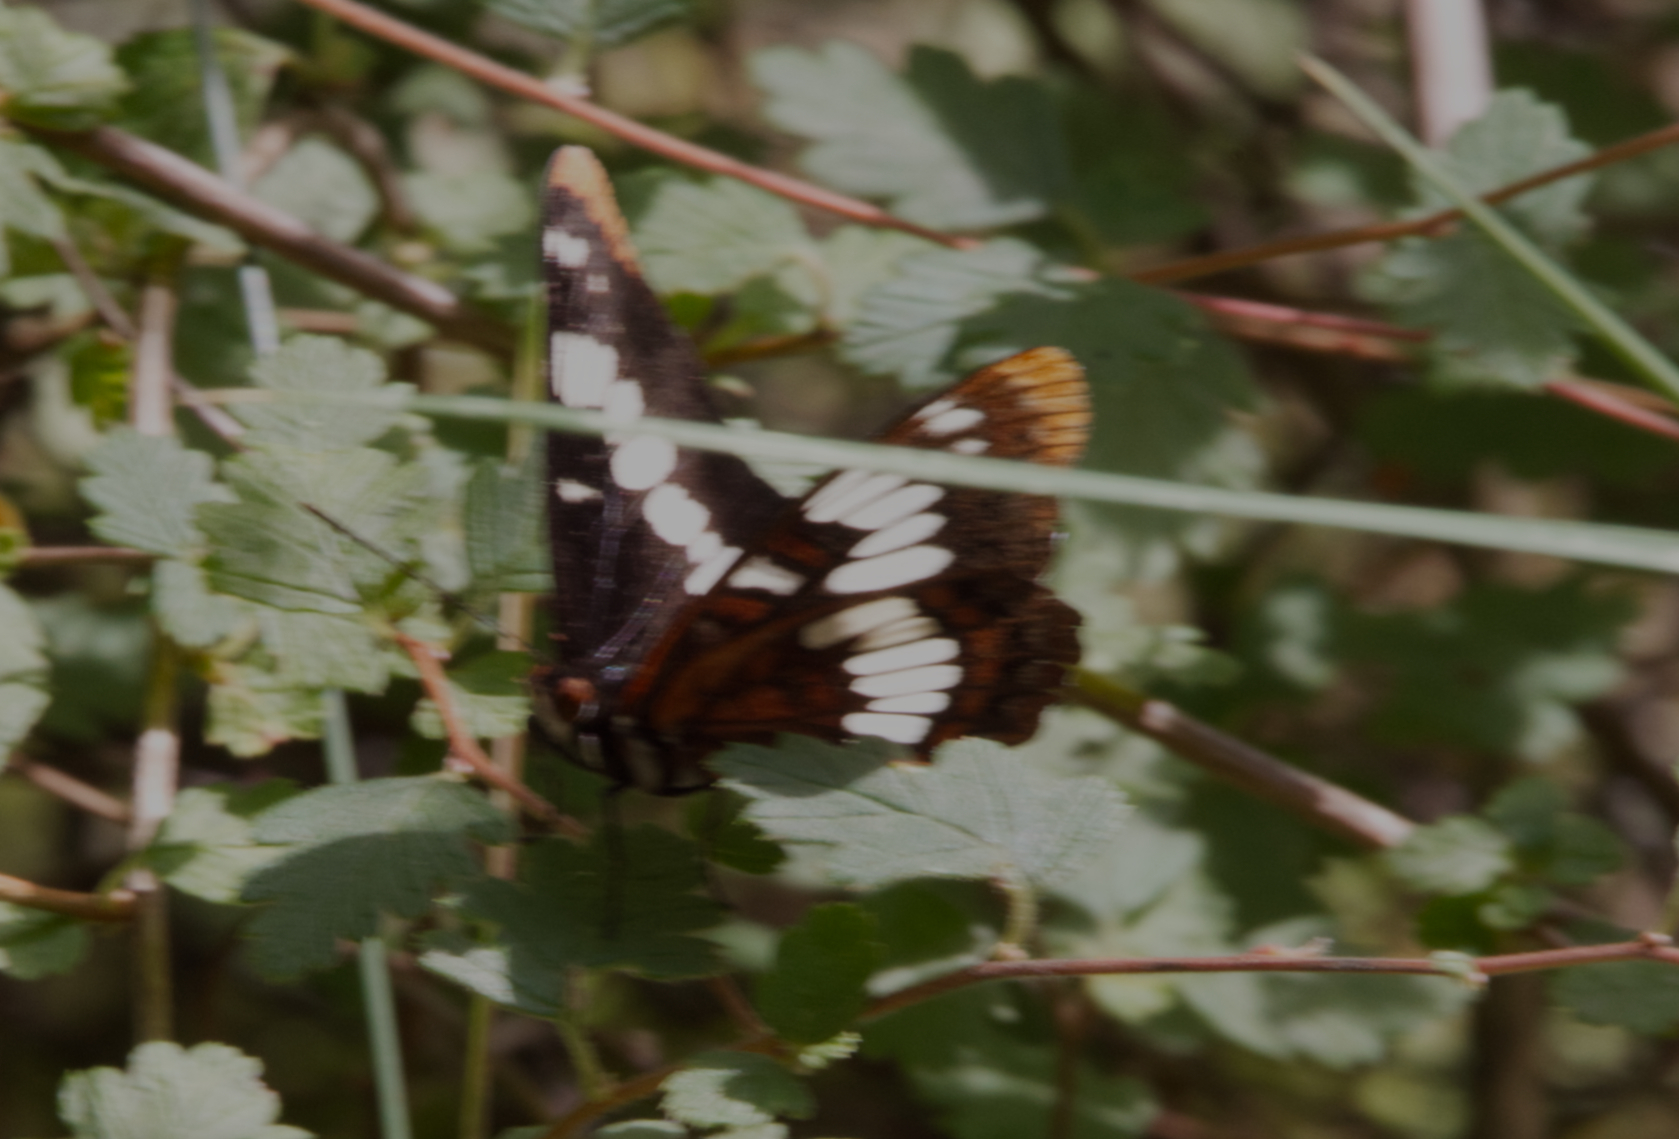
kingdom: Animalia
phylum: Arthropoda
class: Insecta
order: Lepidoptera
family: Nymphalidae
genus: Limenitis
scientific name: Limenitis lorquini
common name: Lorquin's admiral
